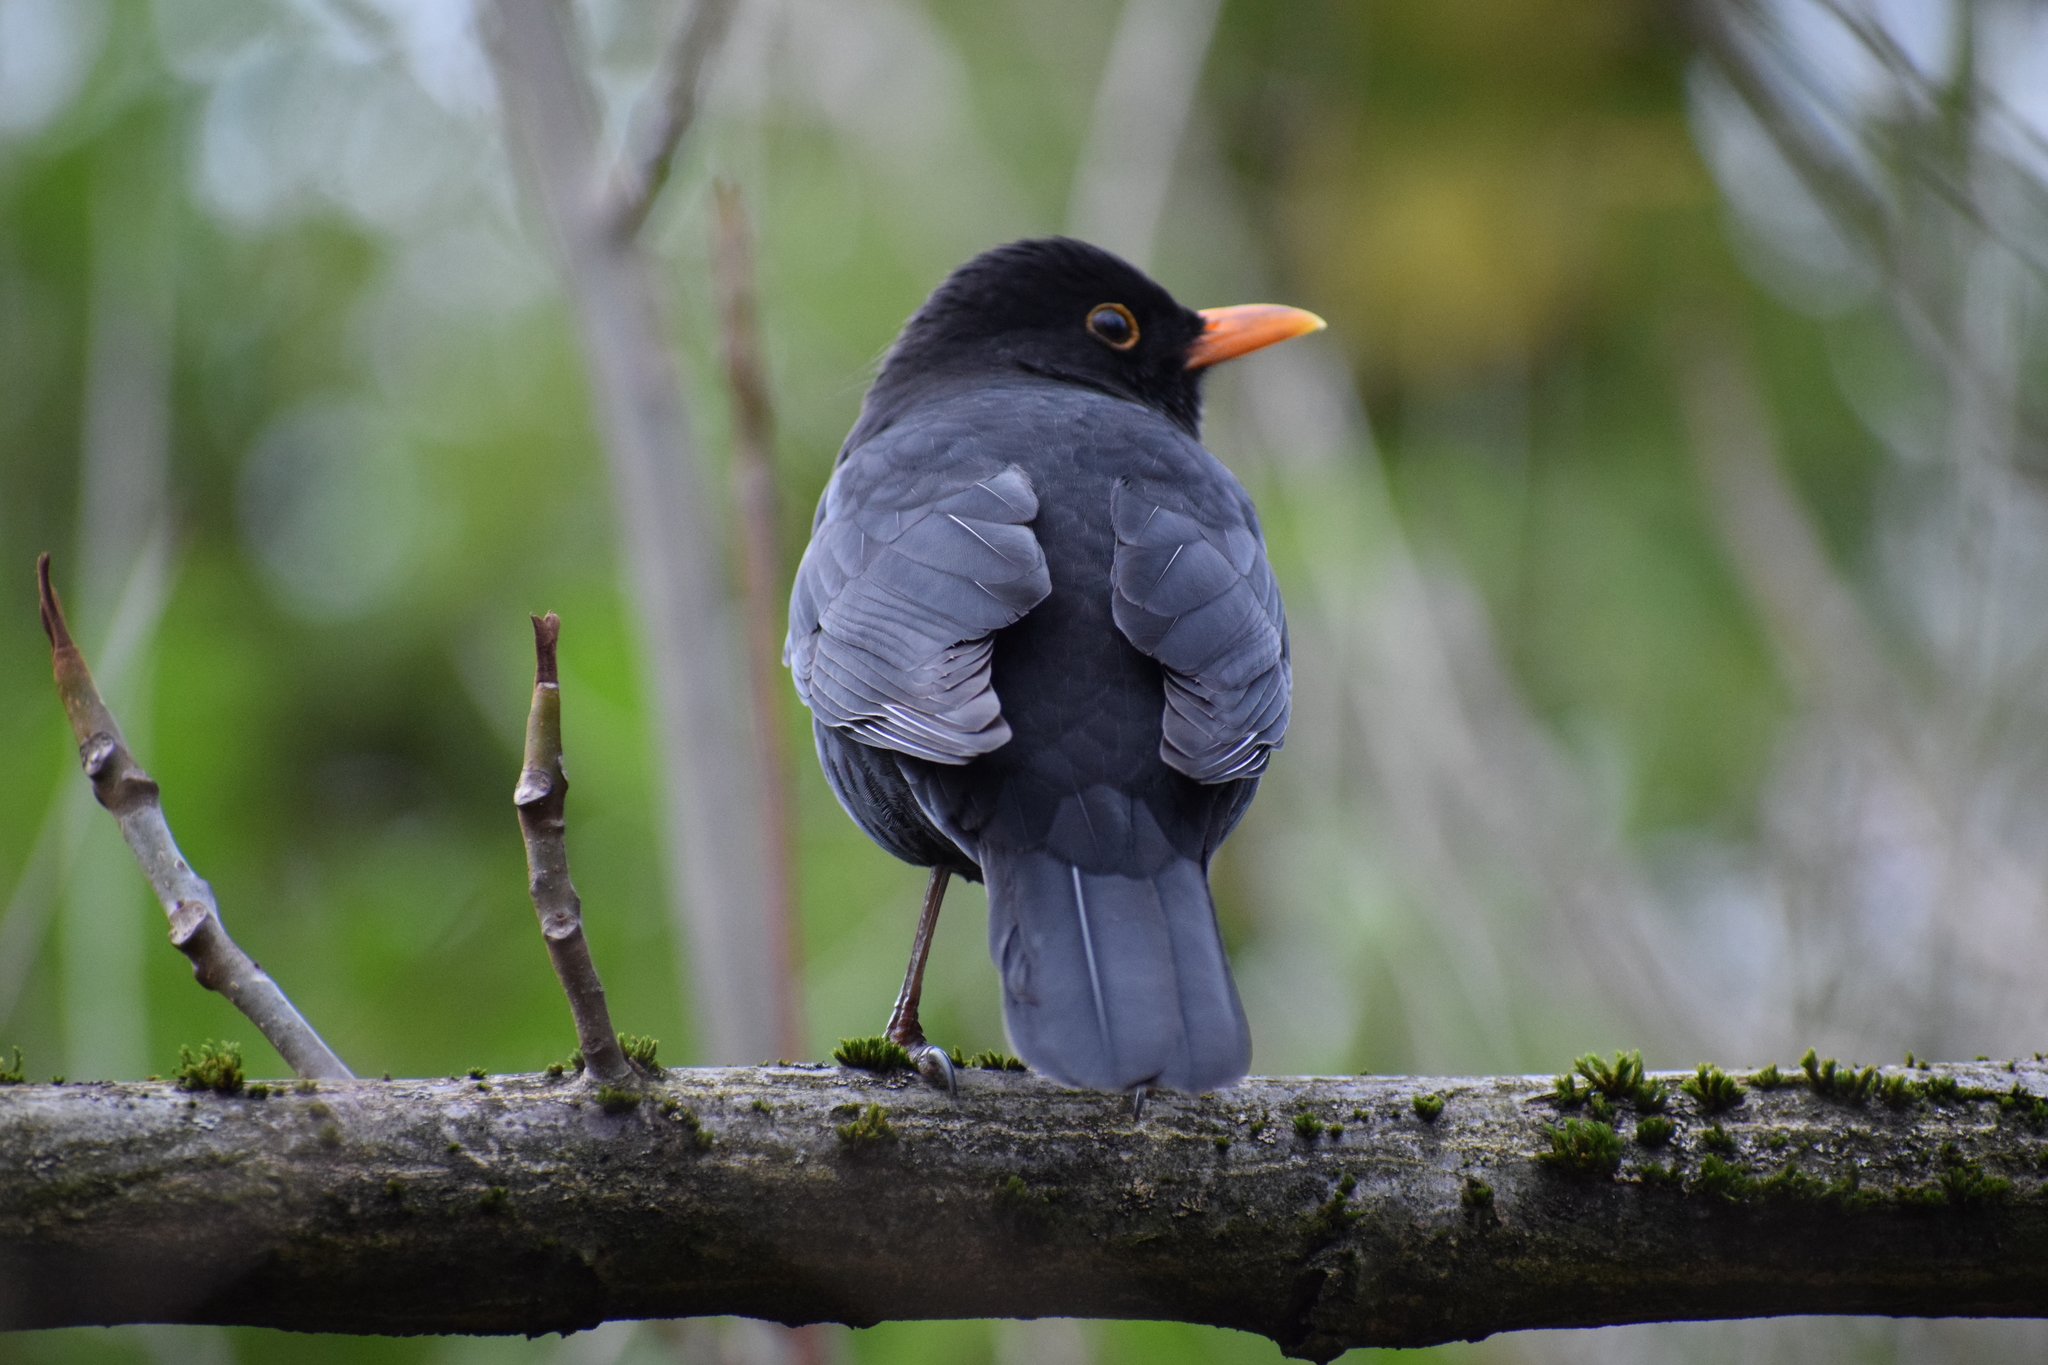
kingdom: Animalia
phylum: Chordata
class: Aves
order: Passeriformes
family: Turdidae
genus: Turdus
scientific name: Turdus merula
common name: Common blackbird
